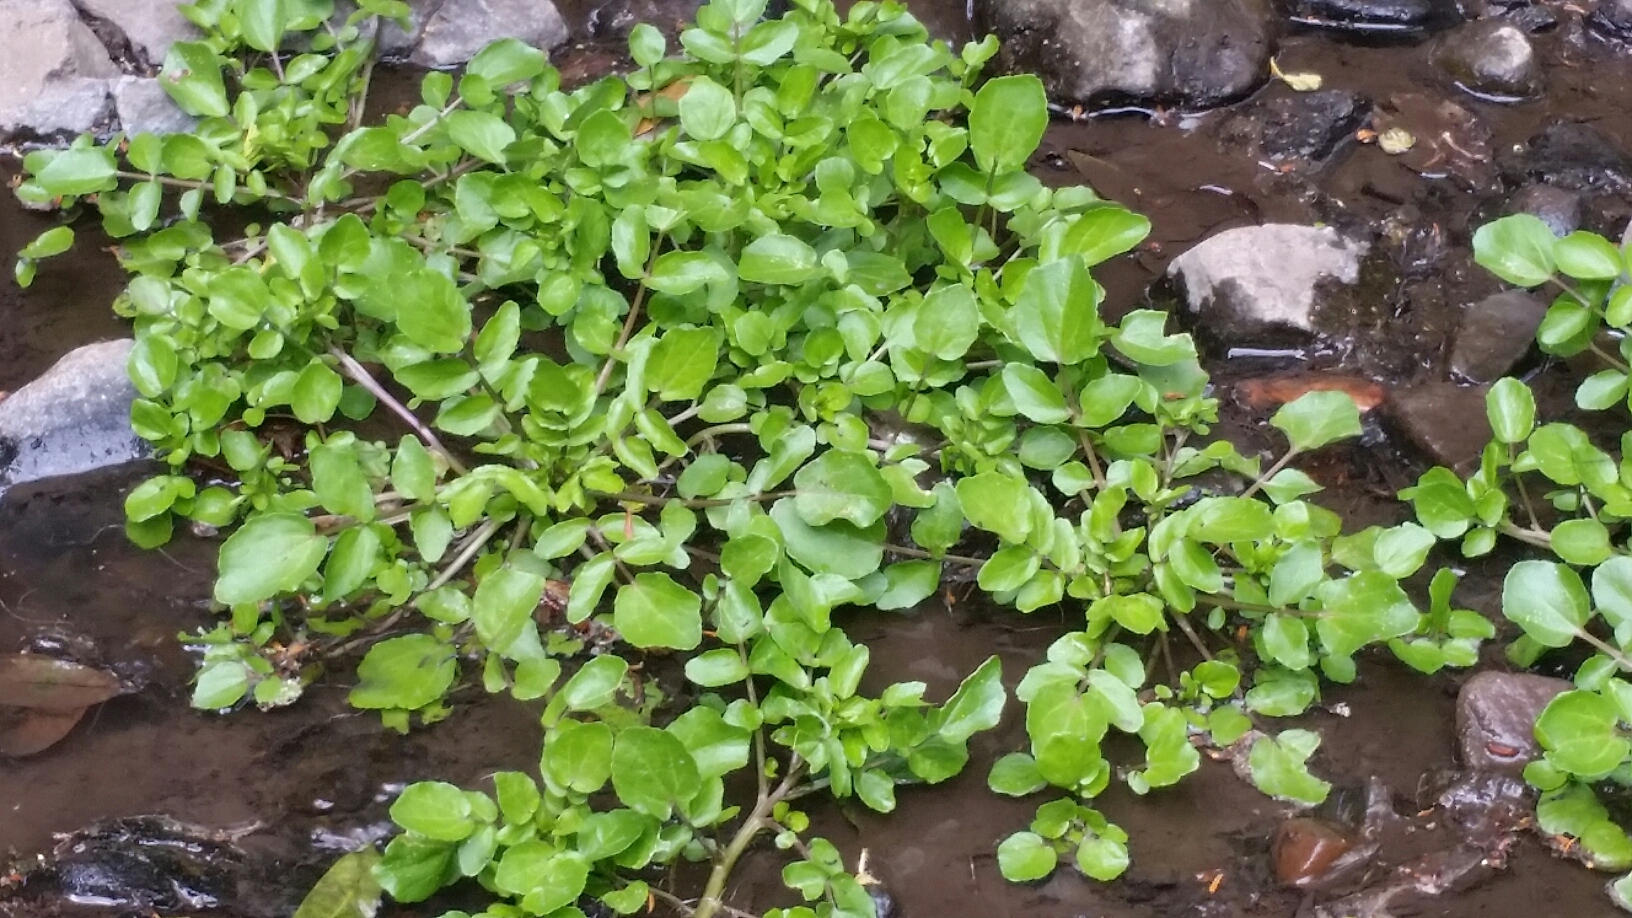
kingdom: Plantae
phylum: Tracheophyta
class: Magnoliopsida
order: Brassicales
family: Brassicaceae
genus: Nasturtium
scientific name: Nasturtium officinale
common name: Watercress
